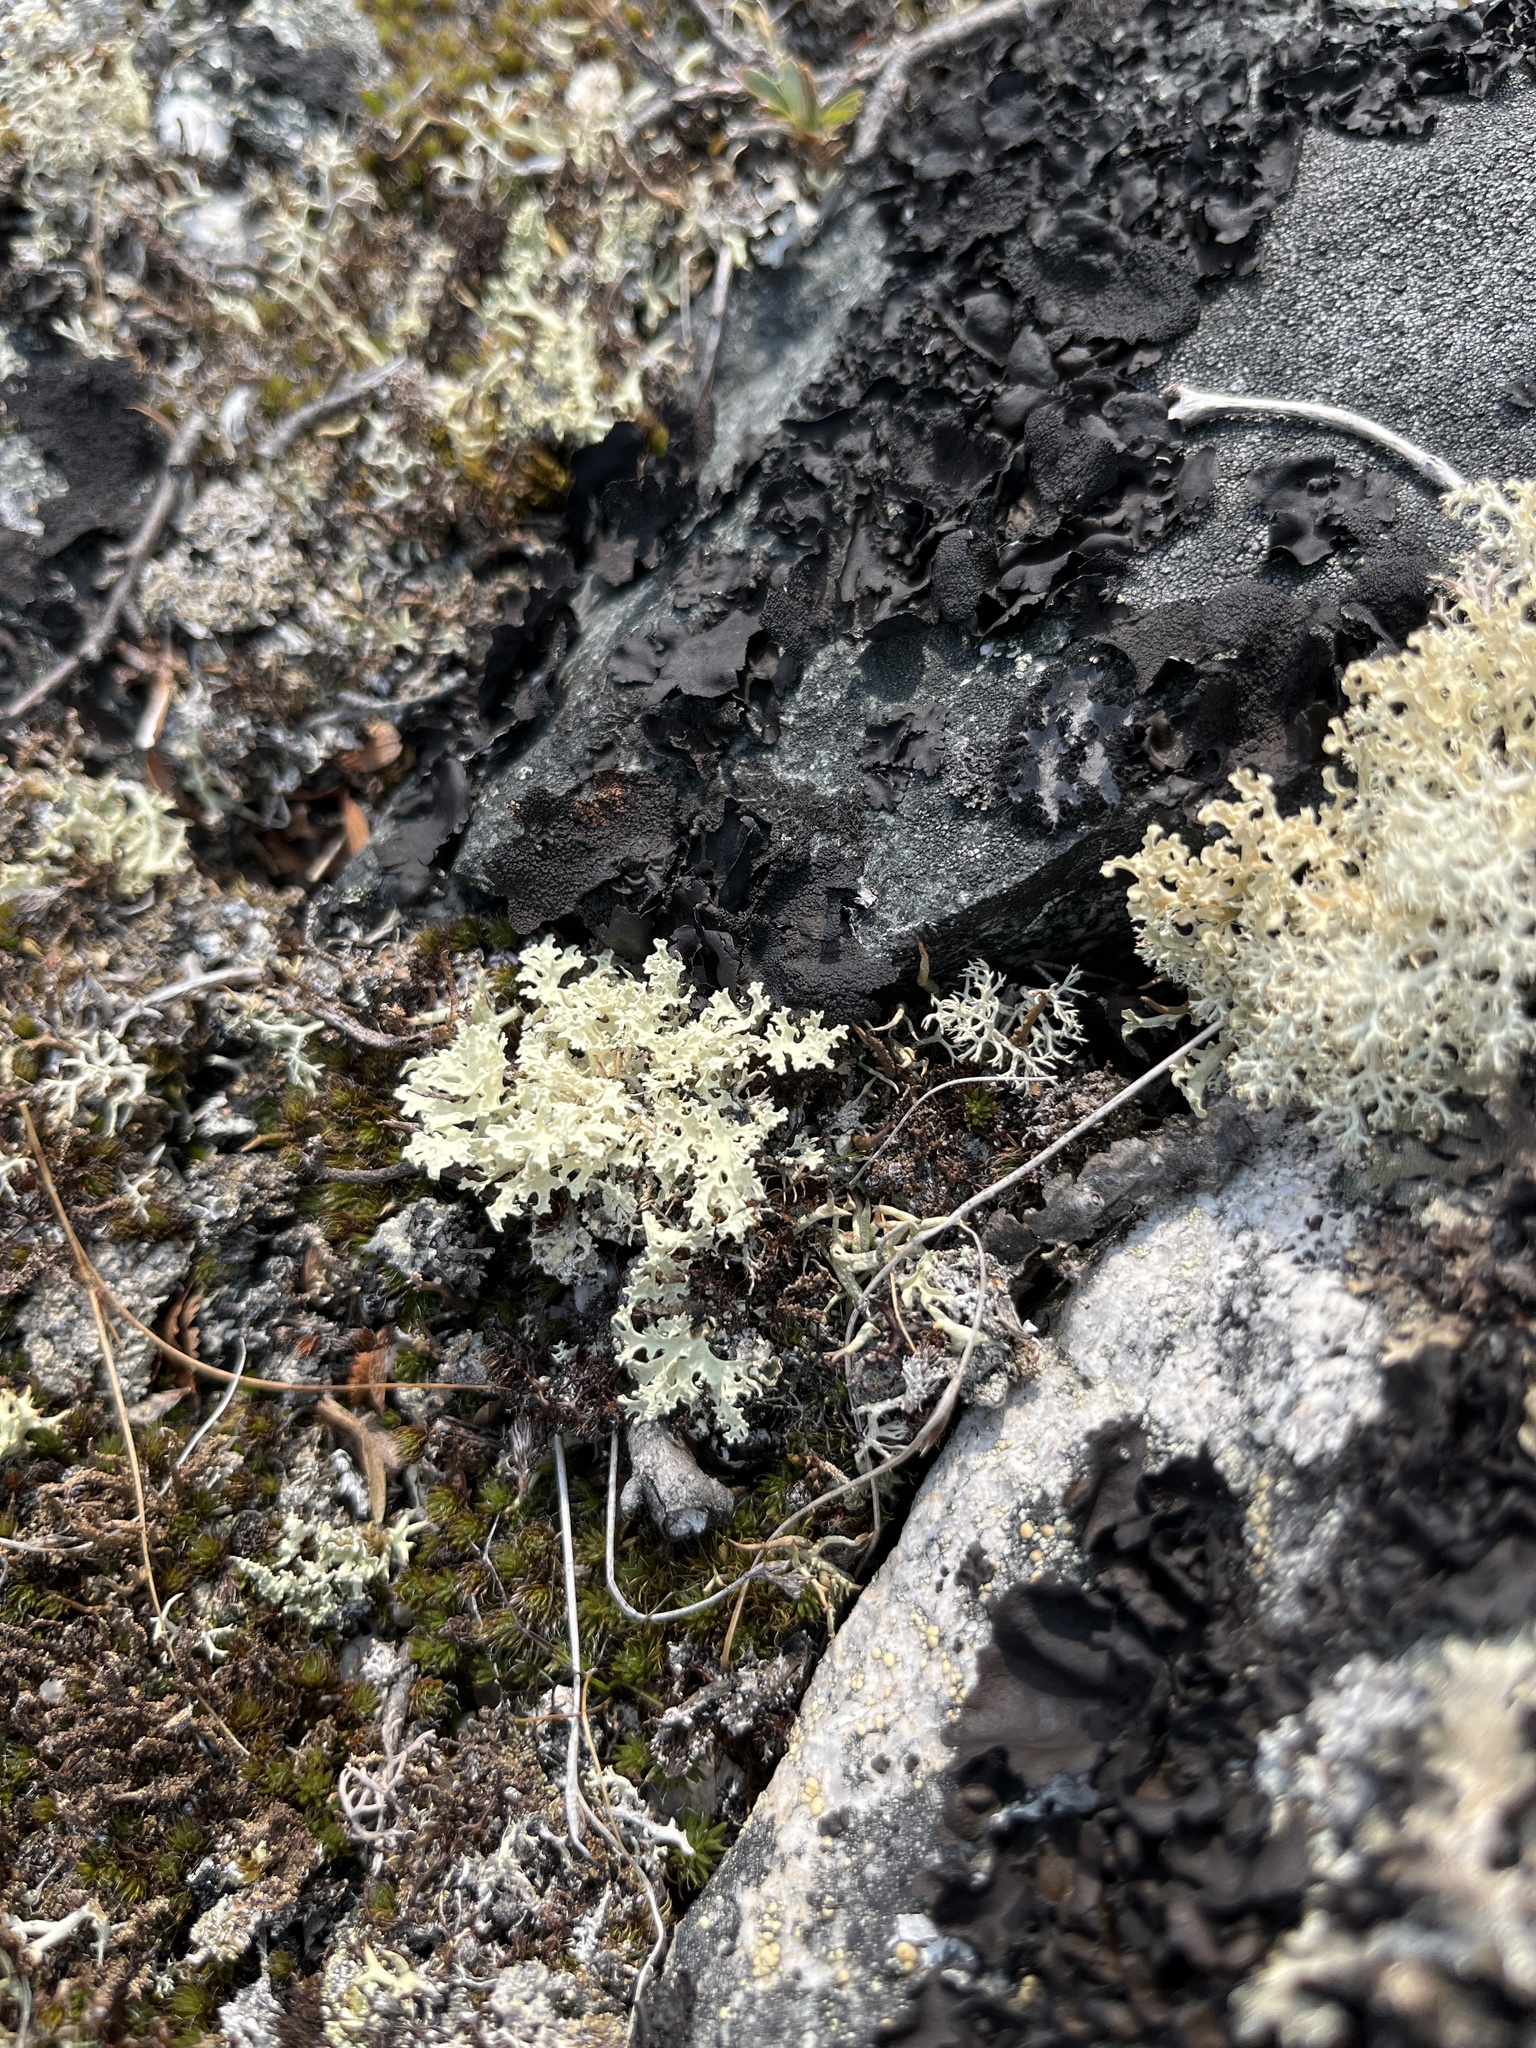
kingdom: Fungi
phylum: Ascomycota
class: Lecanoromycetes
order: Lecanorales
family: Parmeliaceae
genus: Nephromopsis
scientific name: Nephromopsis nivalis
